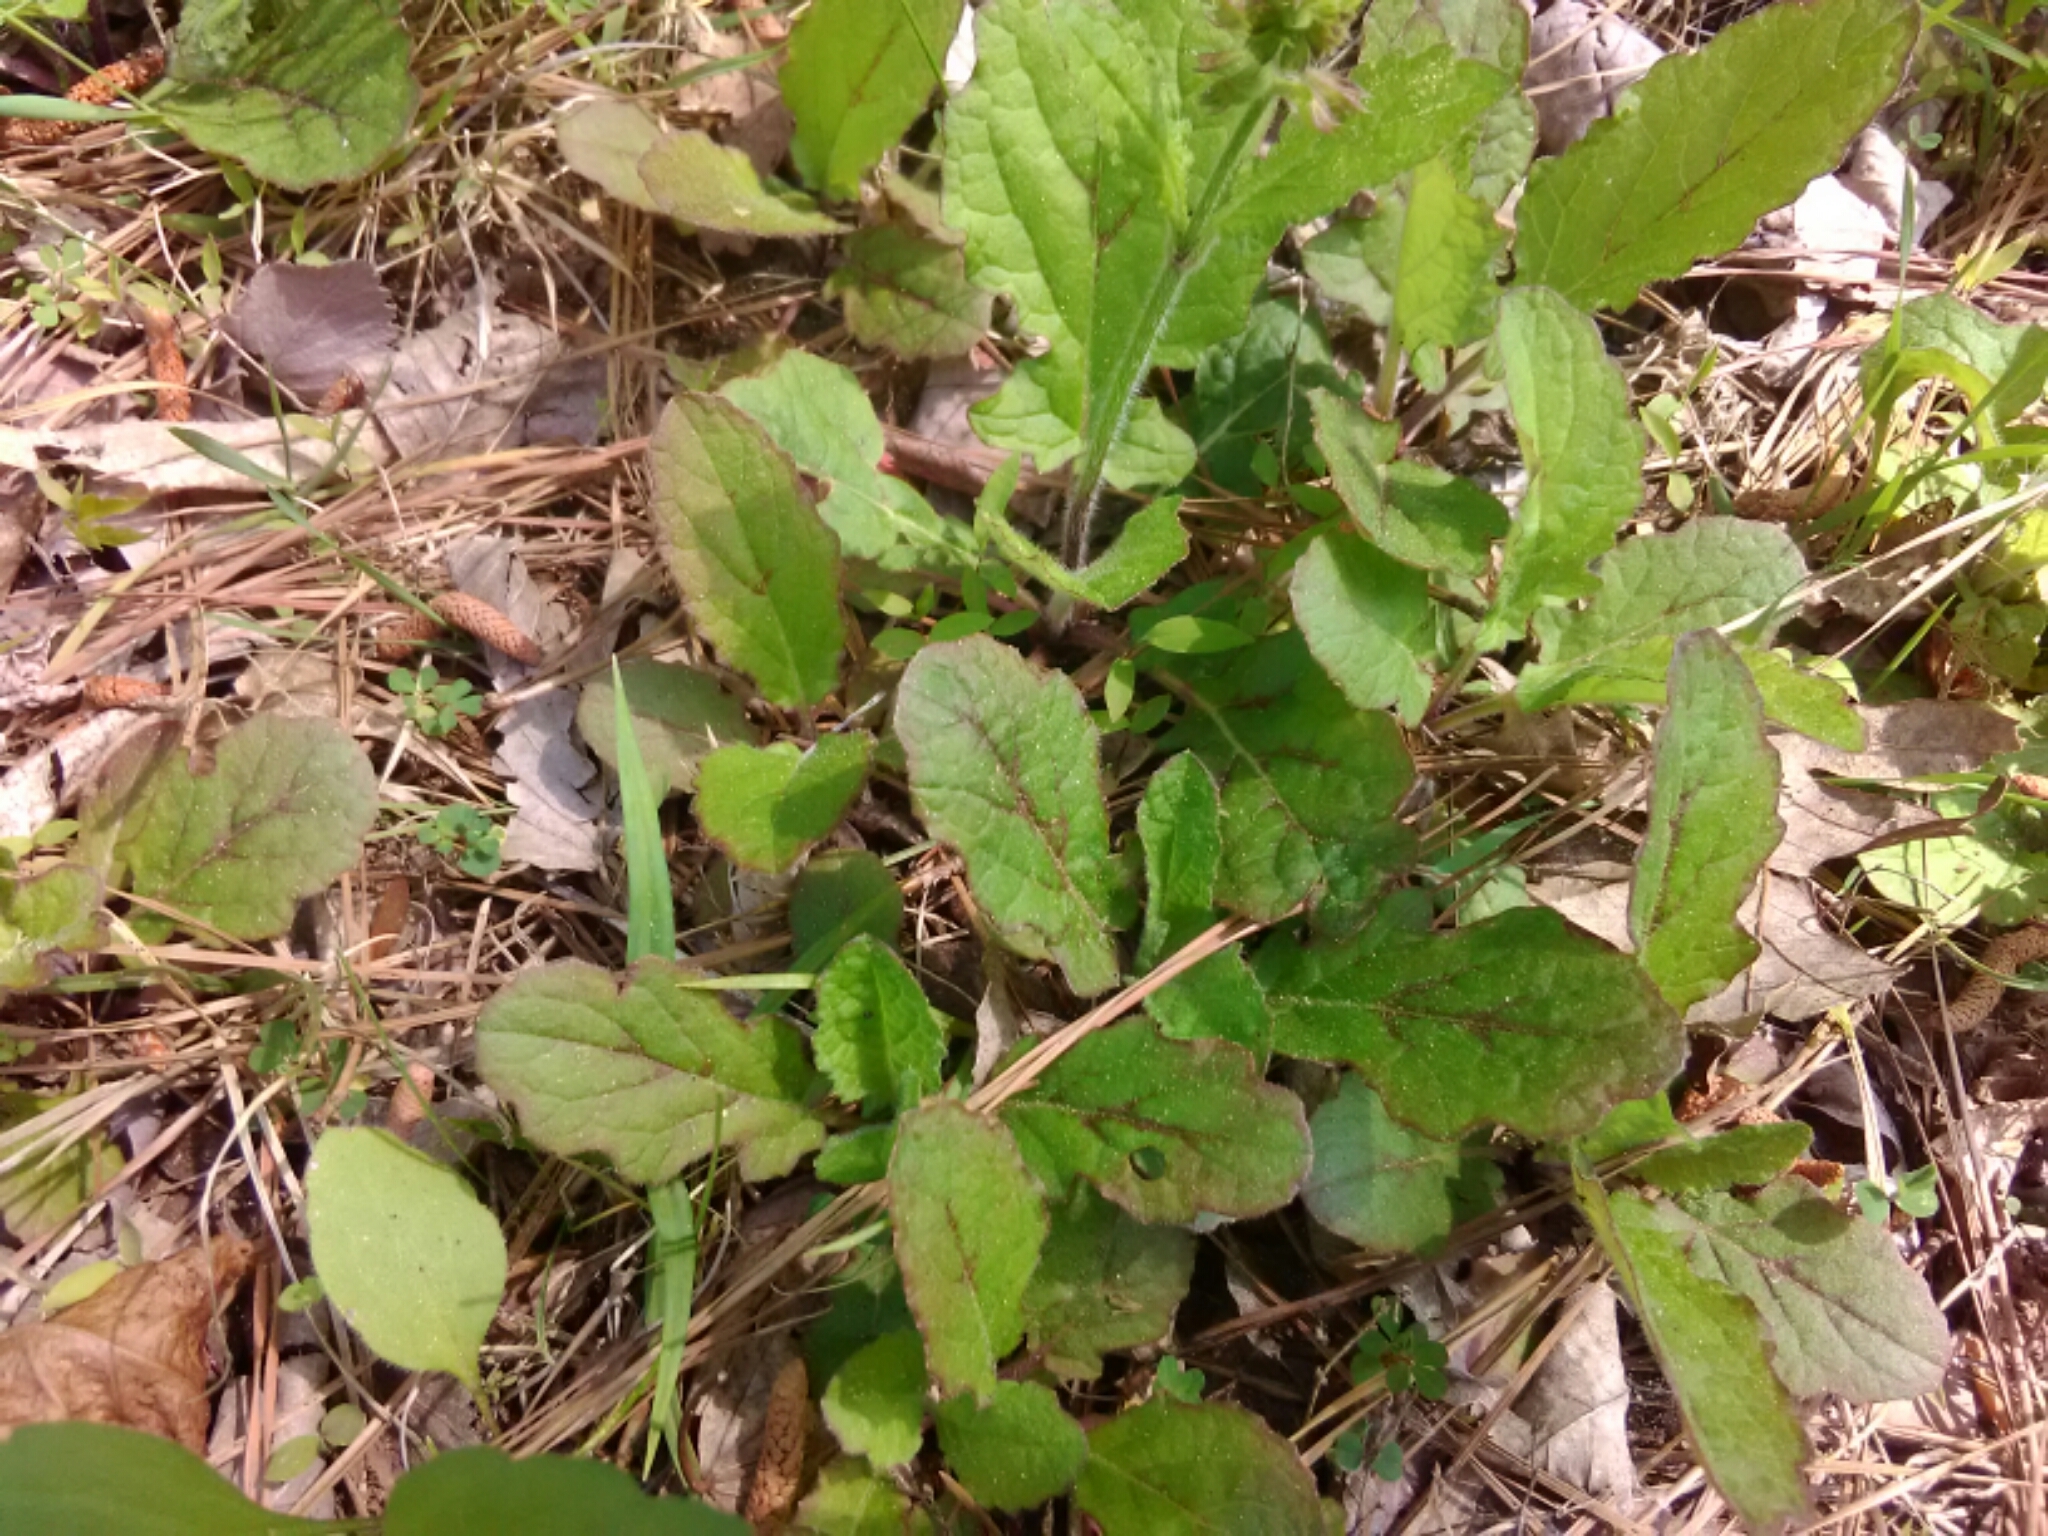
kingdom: Plantae
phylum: Tracheophyta
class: Magnoliopsida
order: Lamiales
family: Lamiaceae
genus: Salvia
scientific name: Salvia lyrata
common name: Cancerweed
